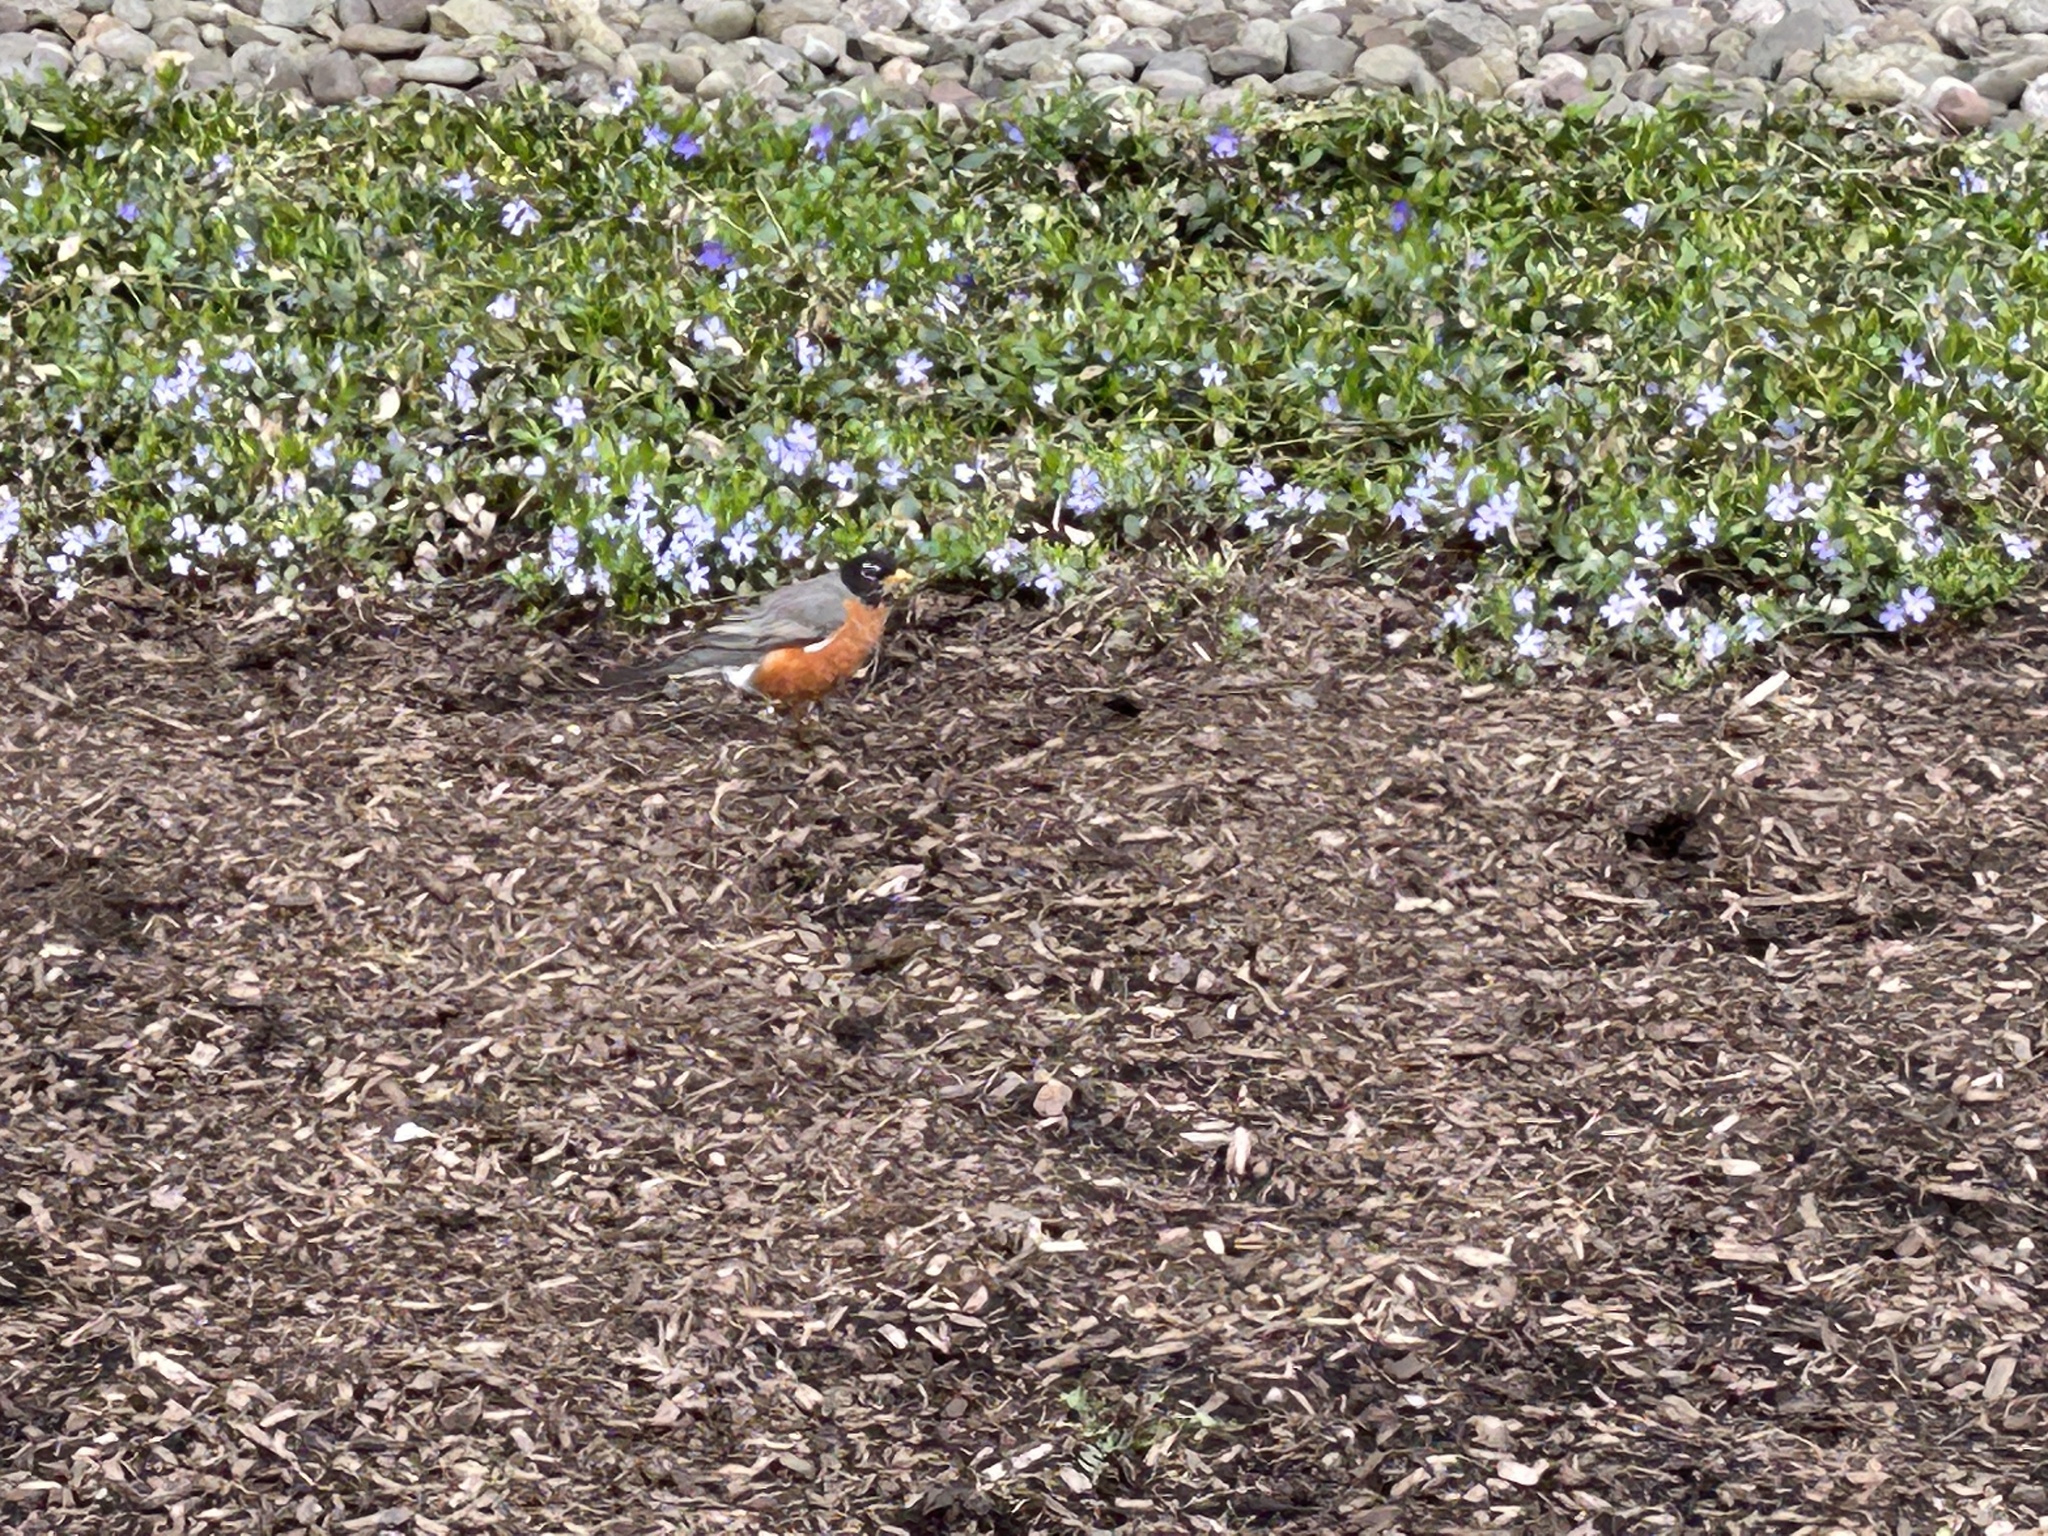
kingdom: Animalia
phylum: Chordata
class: Aves
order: Passeriformes
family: Turdidae
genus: Turdus
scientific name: Turdus migratorius
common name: American robin
